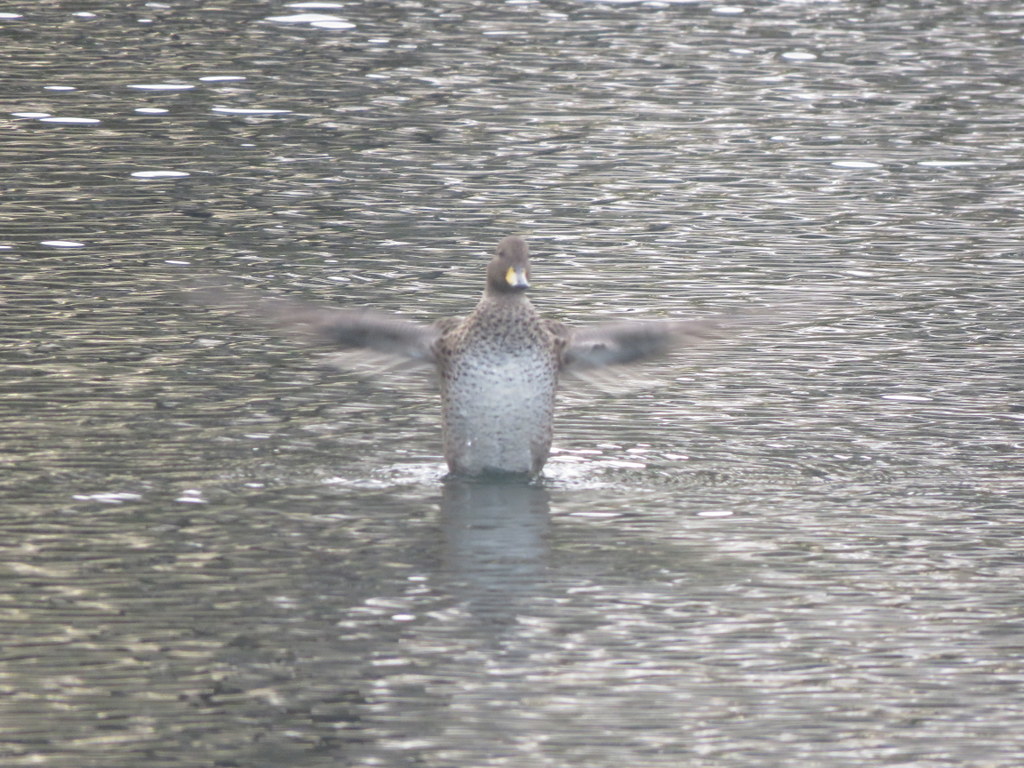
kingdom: Animalia
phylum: Chordata
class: Aves
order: Anseriformes
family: Anatidae
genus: Anas
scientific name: Anas flavirostris
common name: Yellow-billed teal
